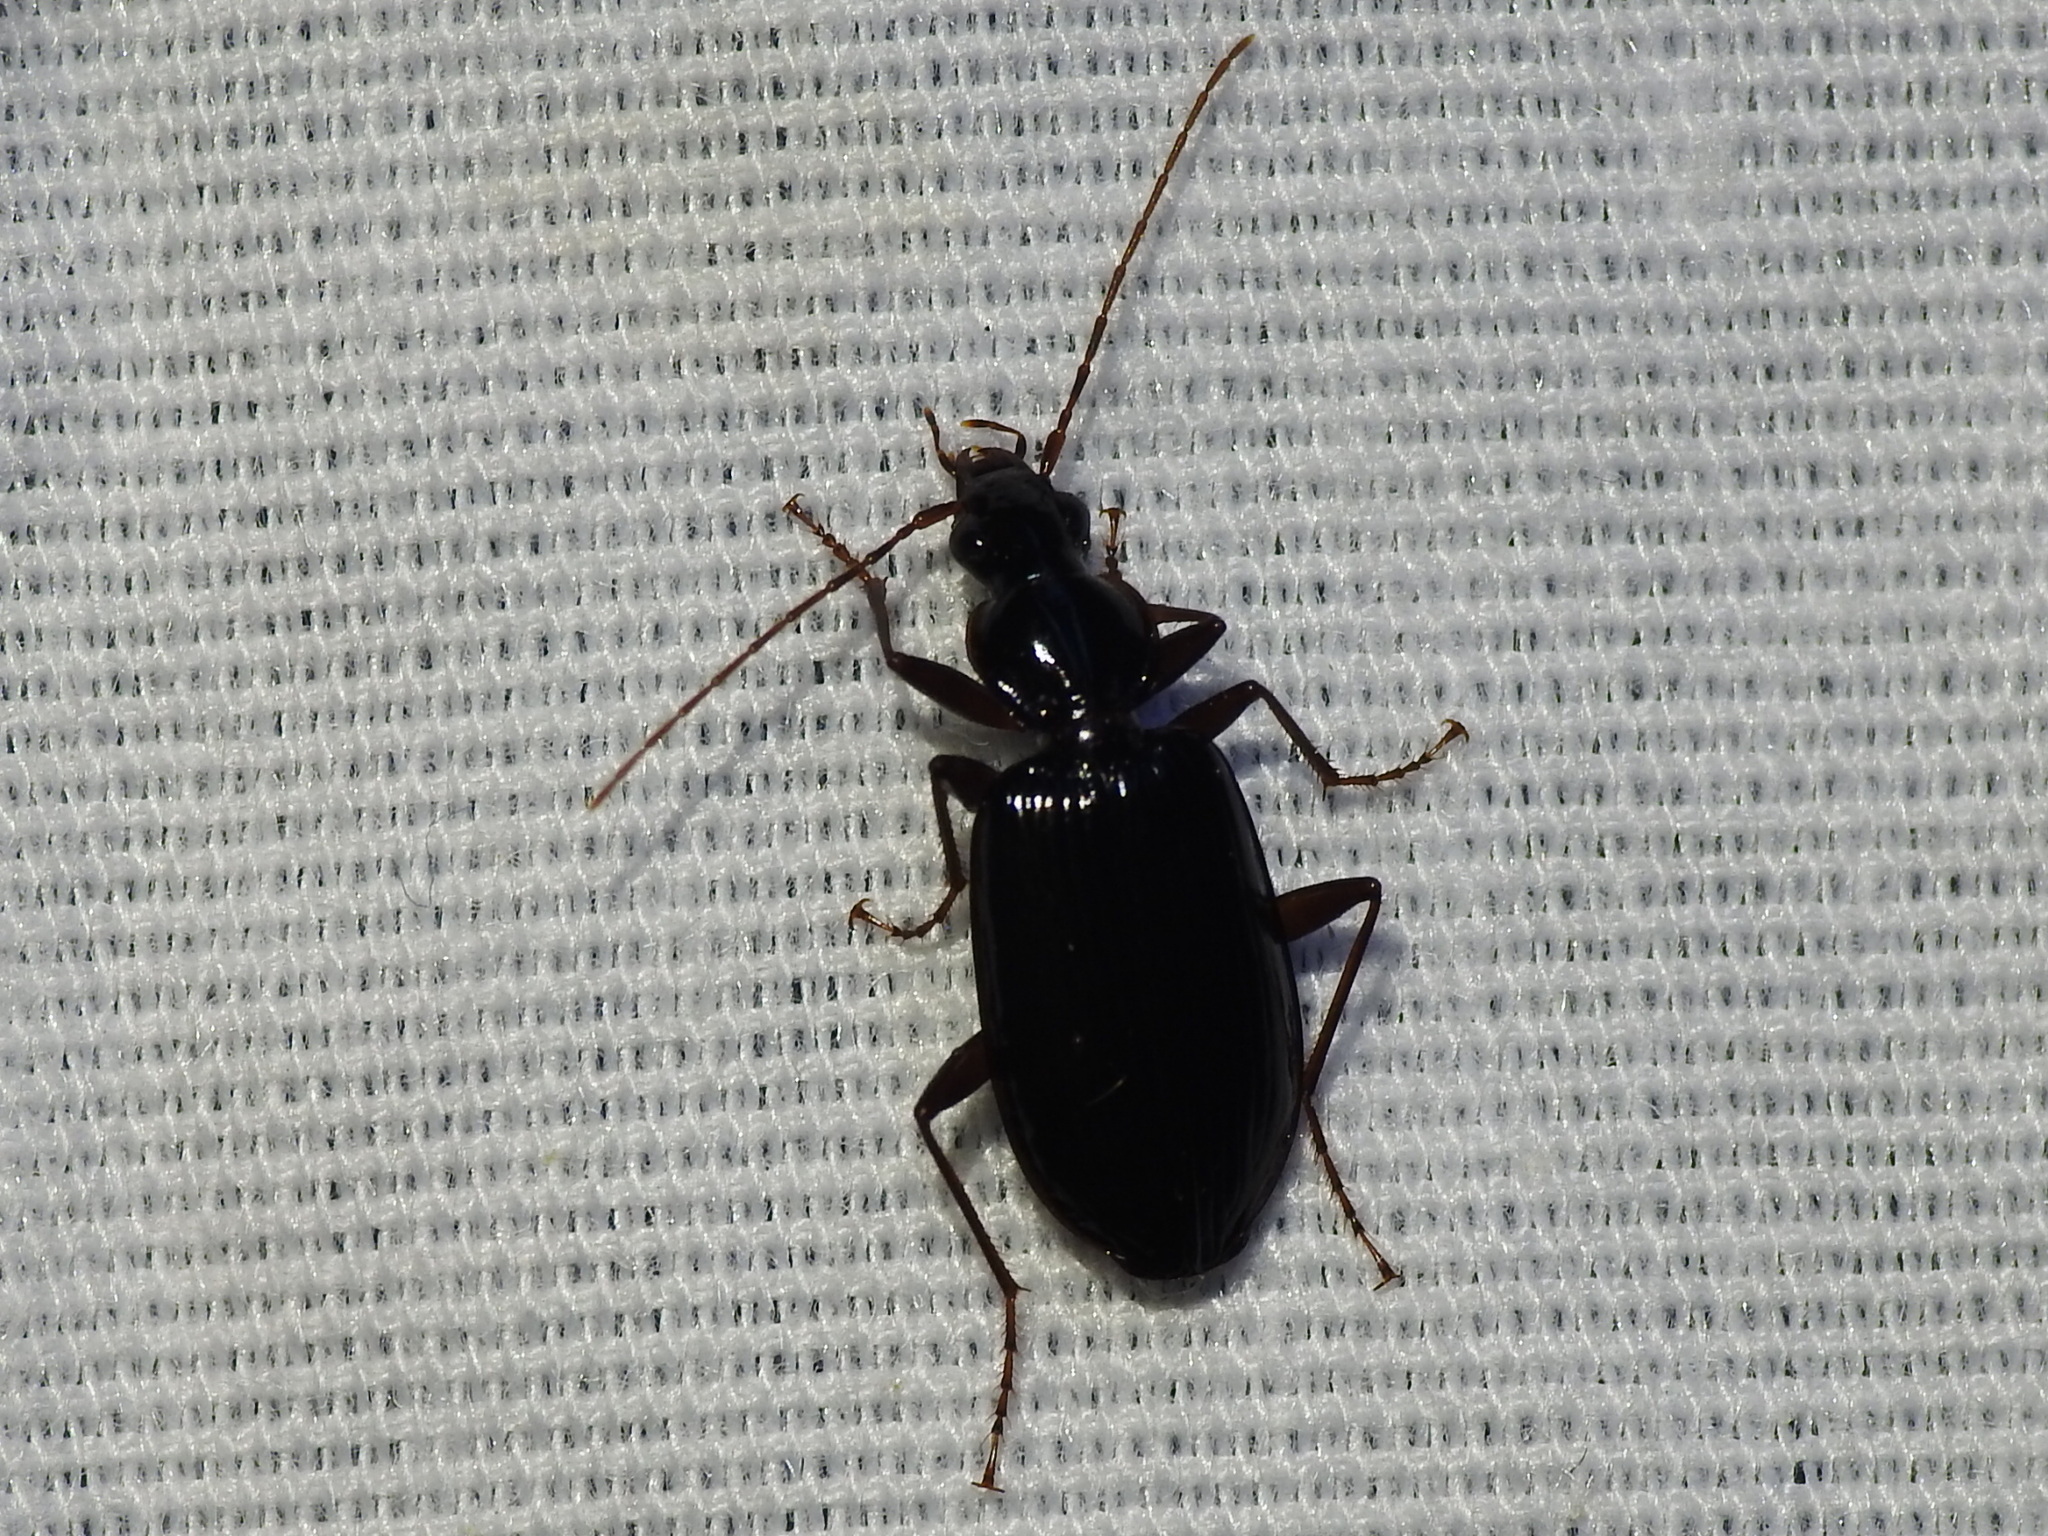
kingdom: Animalia
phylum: Arthropoda
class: Insecta
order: Coleoptera
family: Carabidae
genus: Platynus
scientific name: Platynus cincticollis
